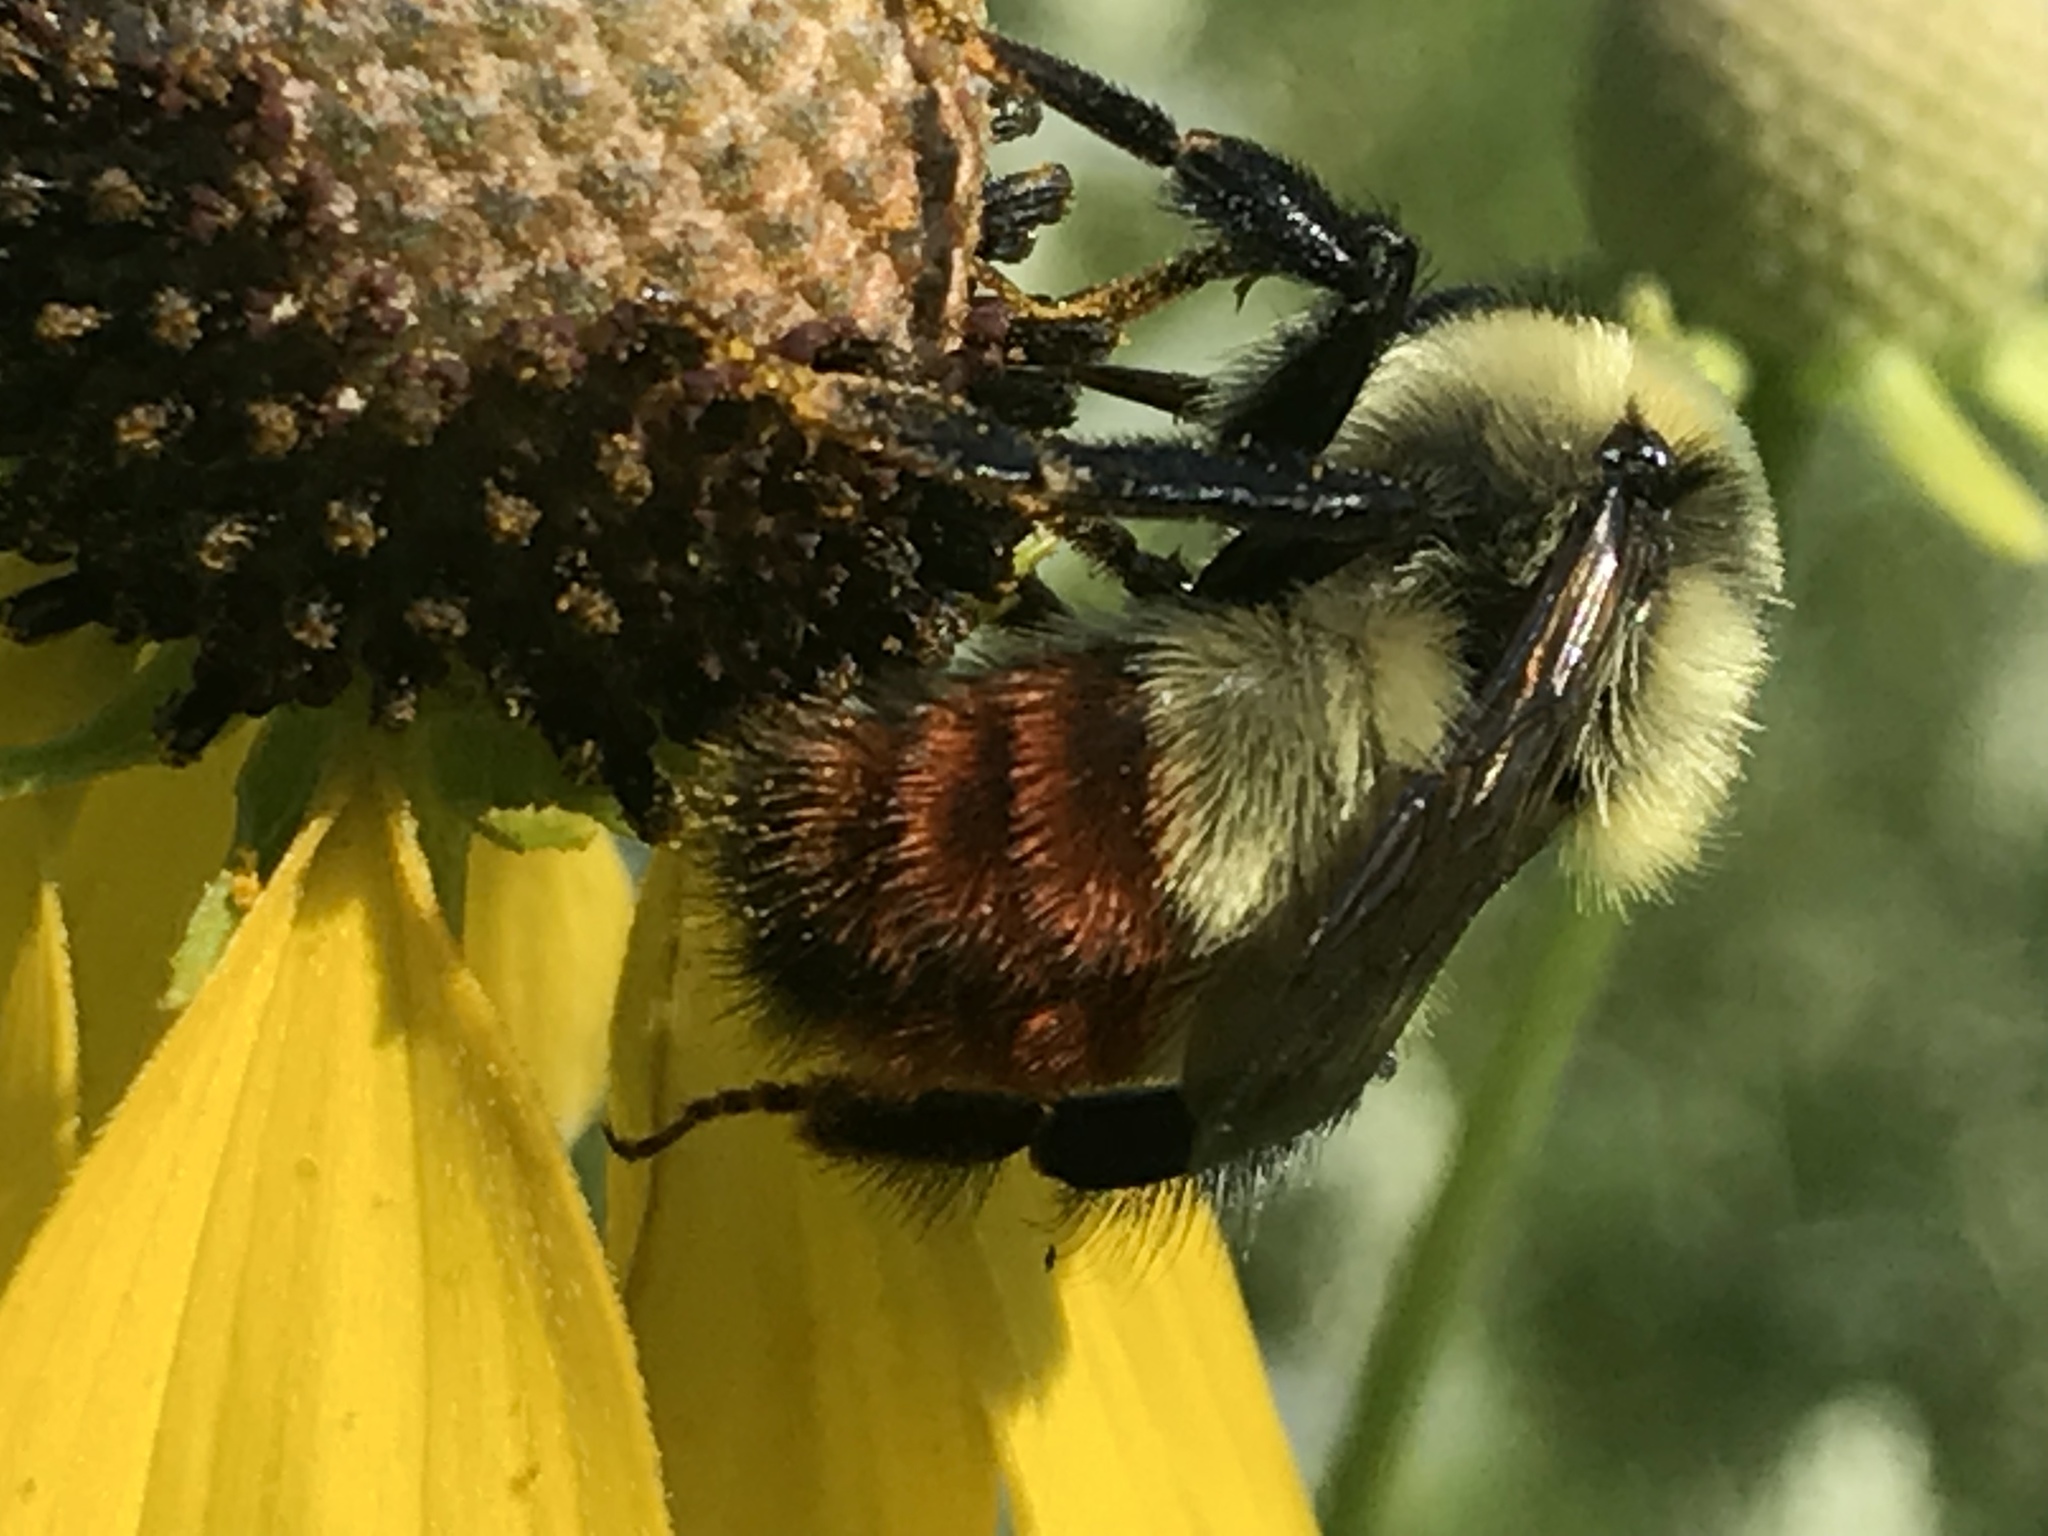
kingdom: Animalia
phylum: Arthropoda
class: Insecta
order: Hymenoptera
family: Apidae
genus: Bombus
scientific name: Bombus rufocinctus
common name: Red-belted bumble bee
